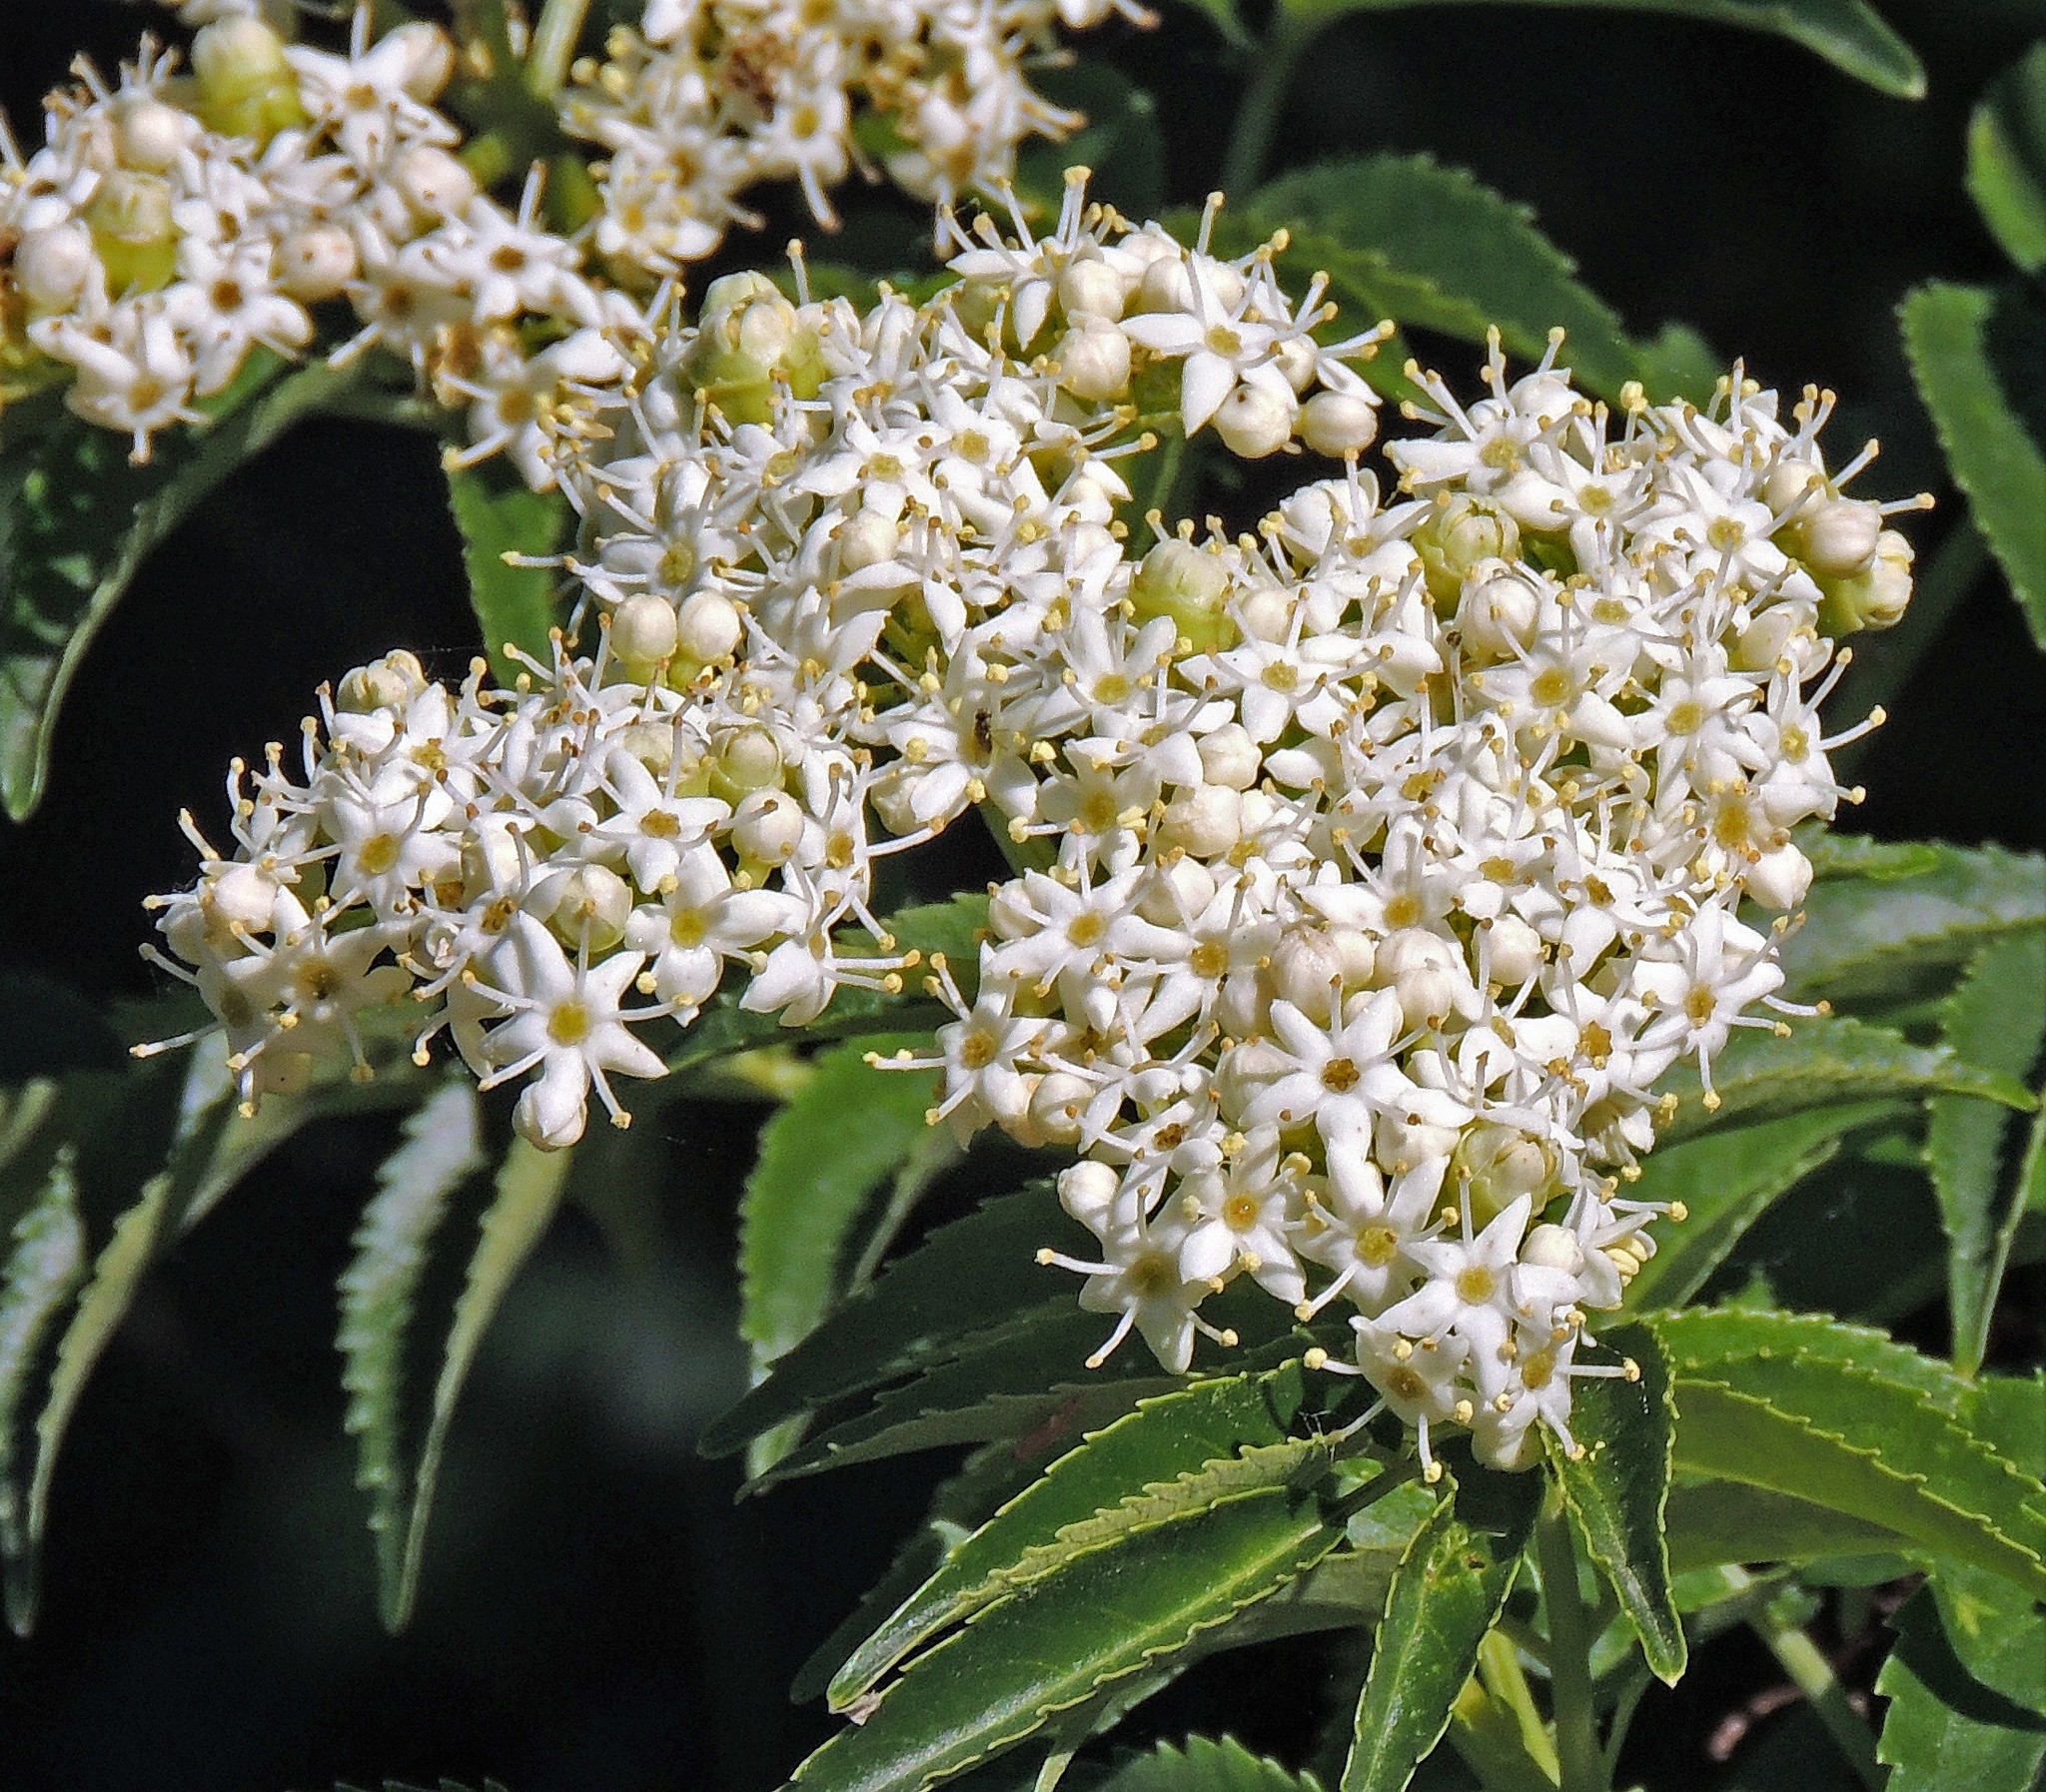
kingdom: Plantae
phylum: Tracheophyta
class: Magnoliopsida
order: Dipsacales
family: Viburnaceae
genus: Sambucus
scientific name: Sambucus australis
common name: Southern elder
